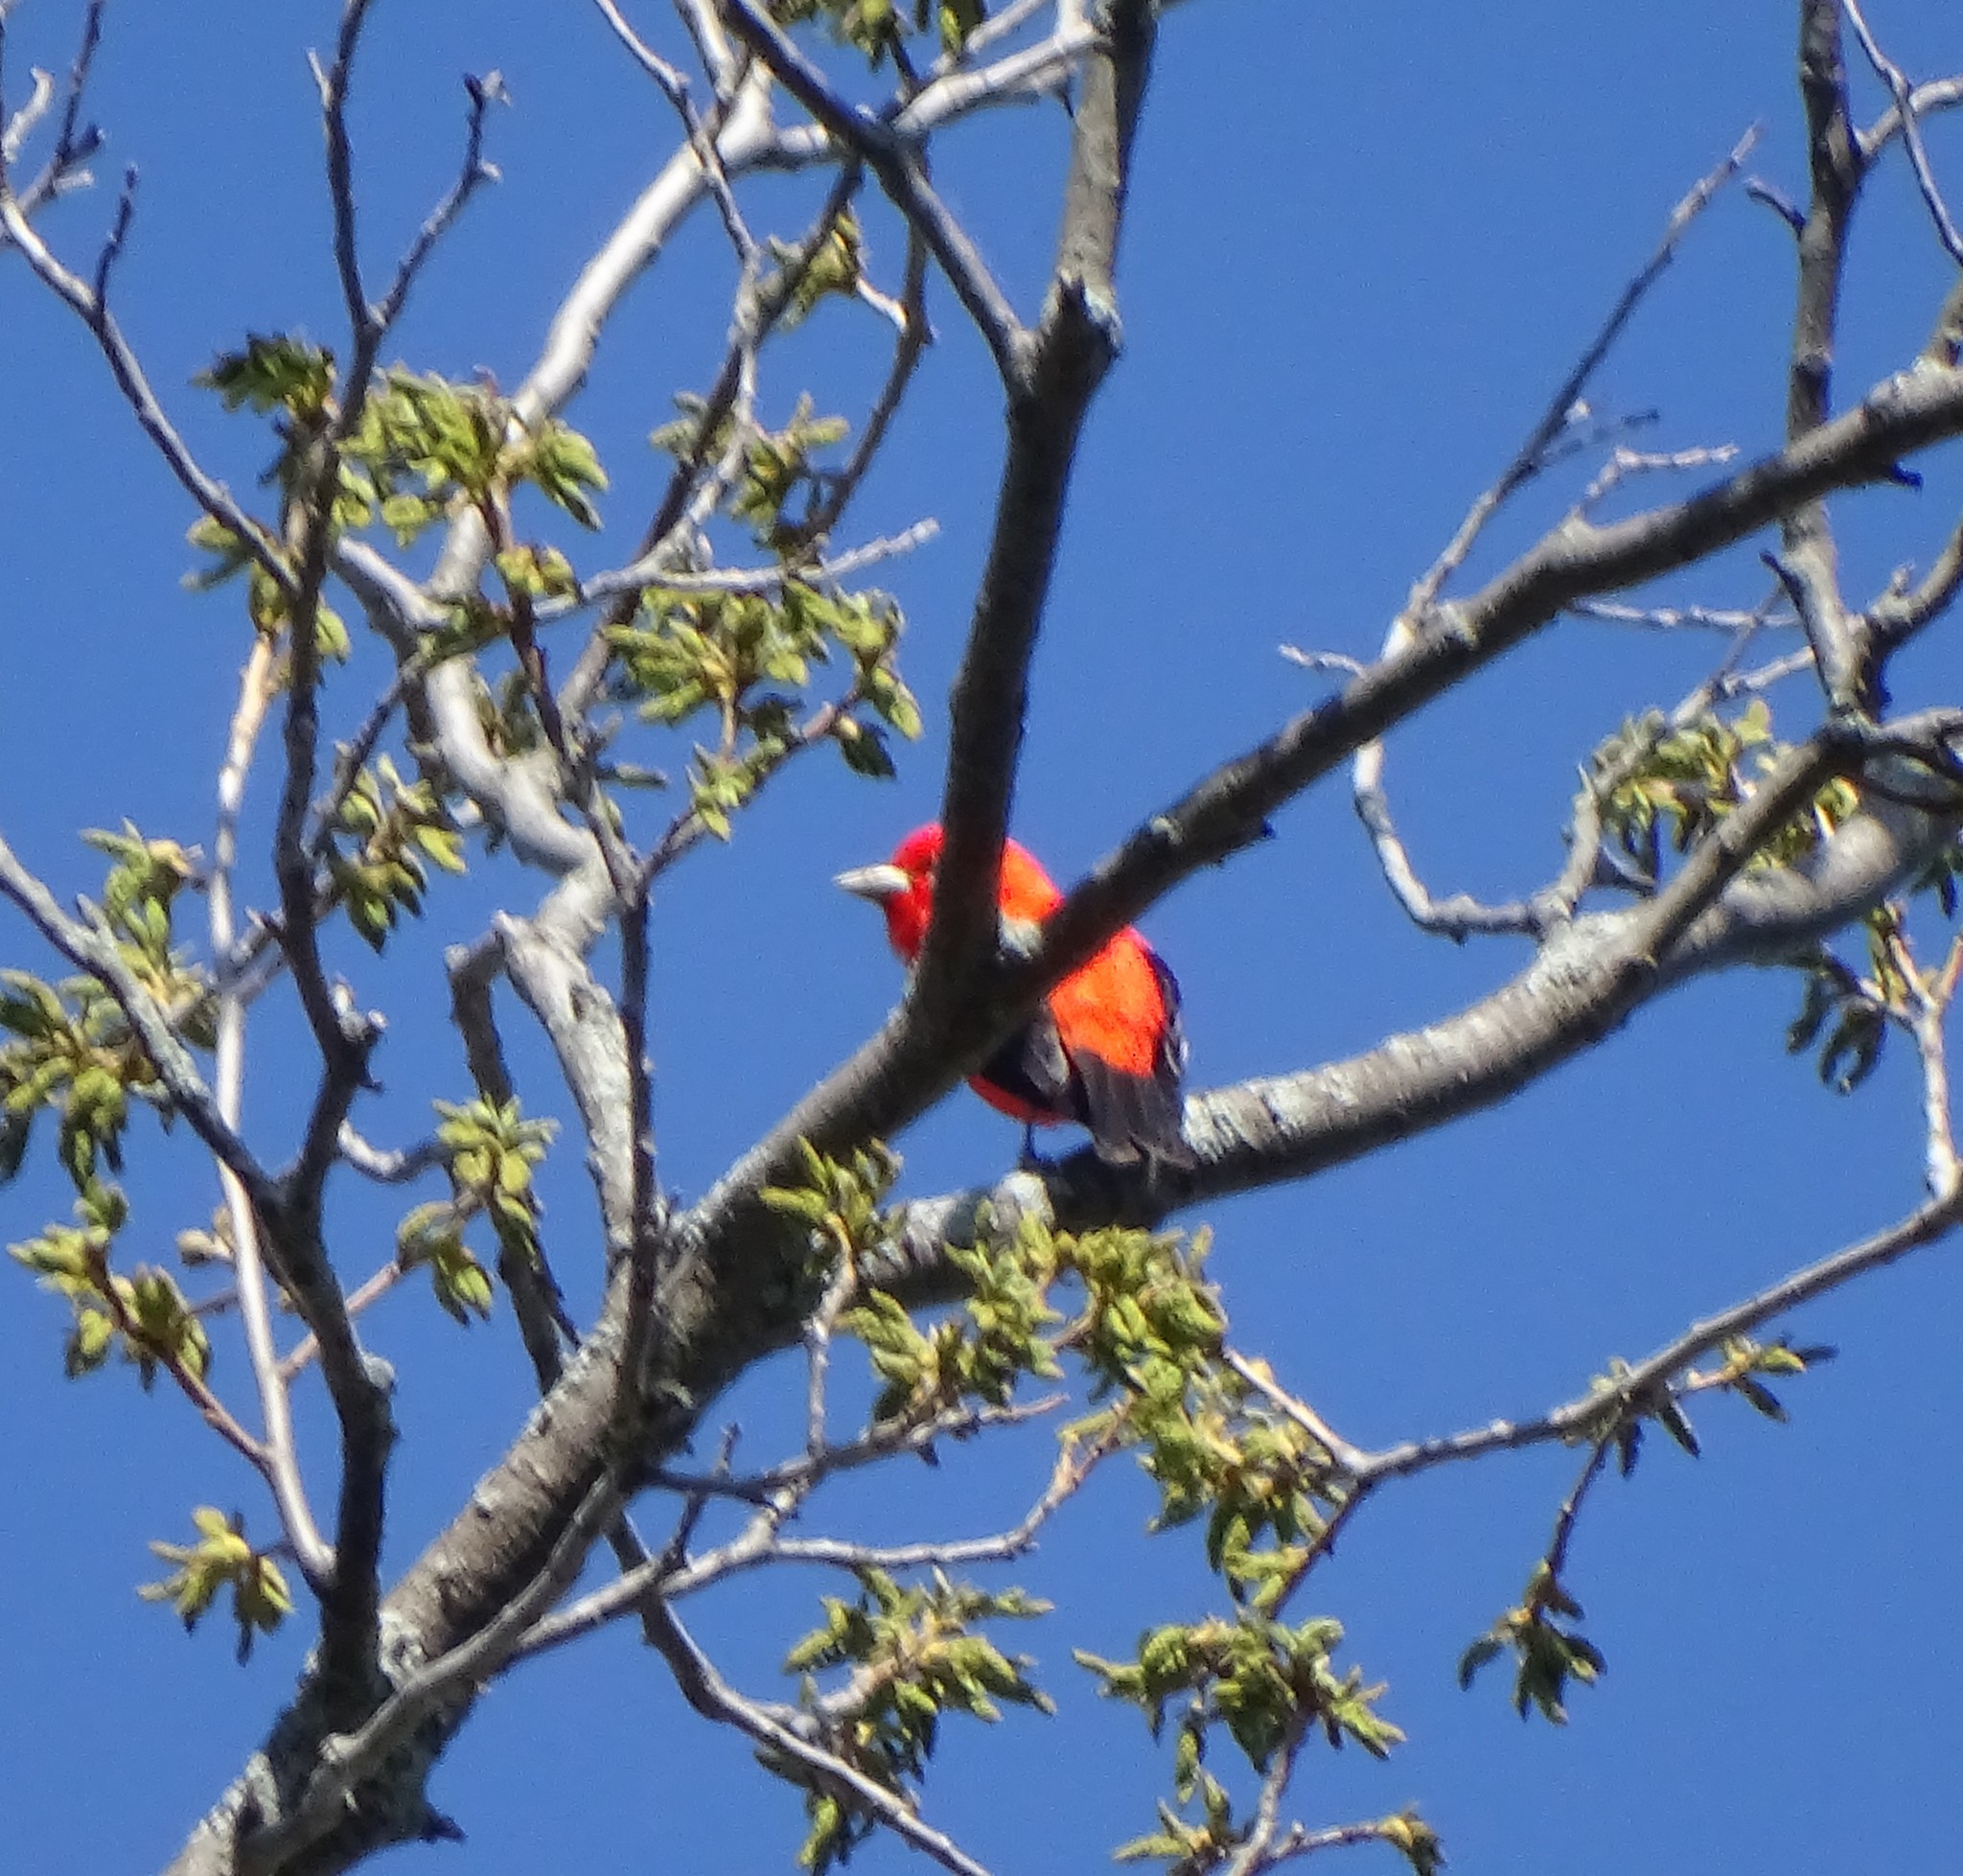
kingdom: Animalia
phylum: Chordata
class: Aves
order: Passeriformes
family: Cardinalidae
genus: Piranga
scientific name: Piranga olivacea
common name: Scarlet tanager
